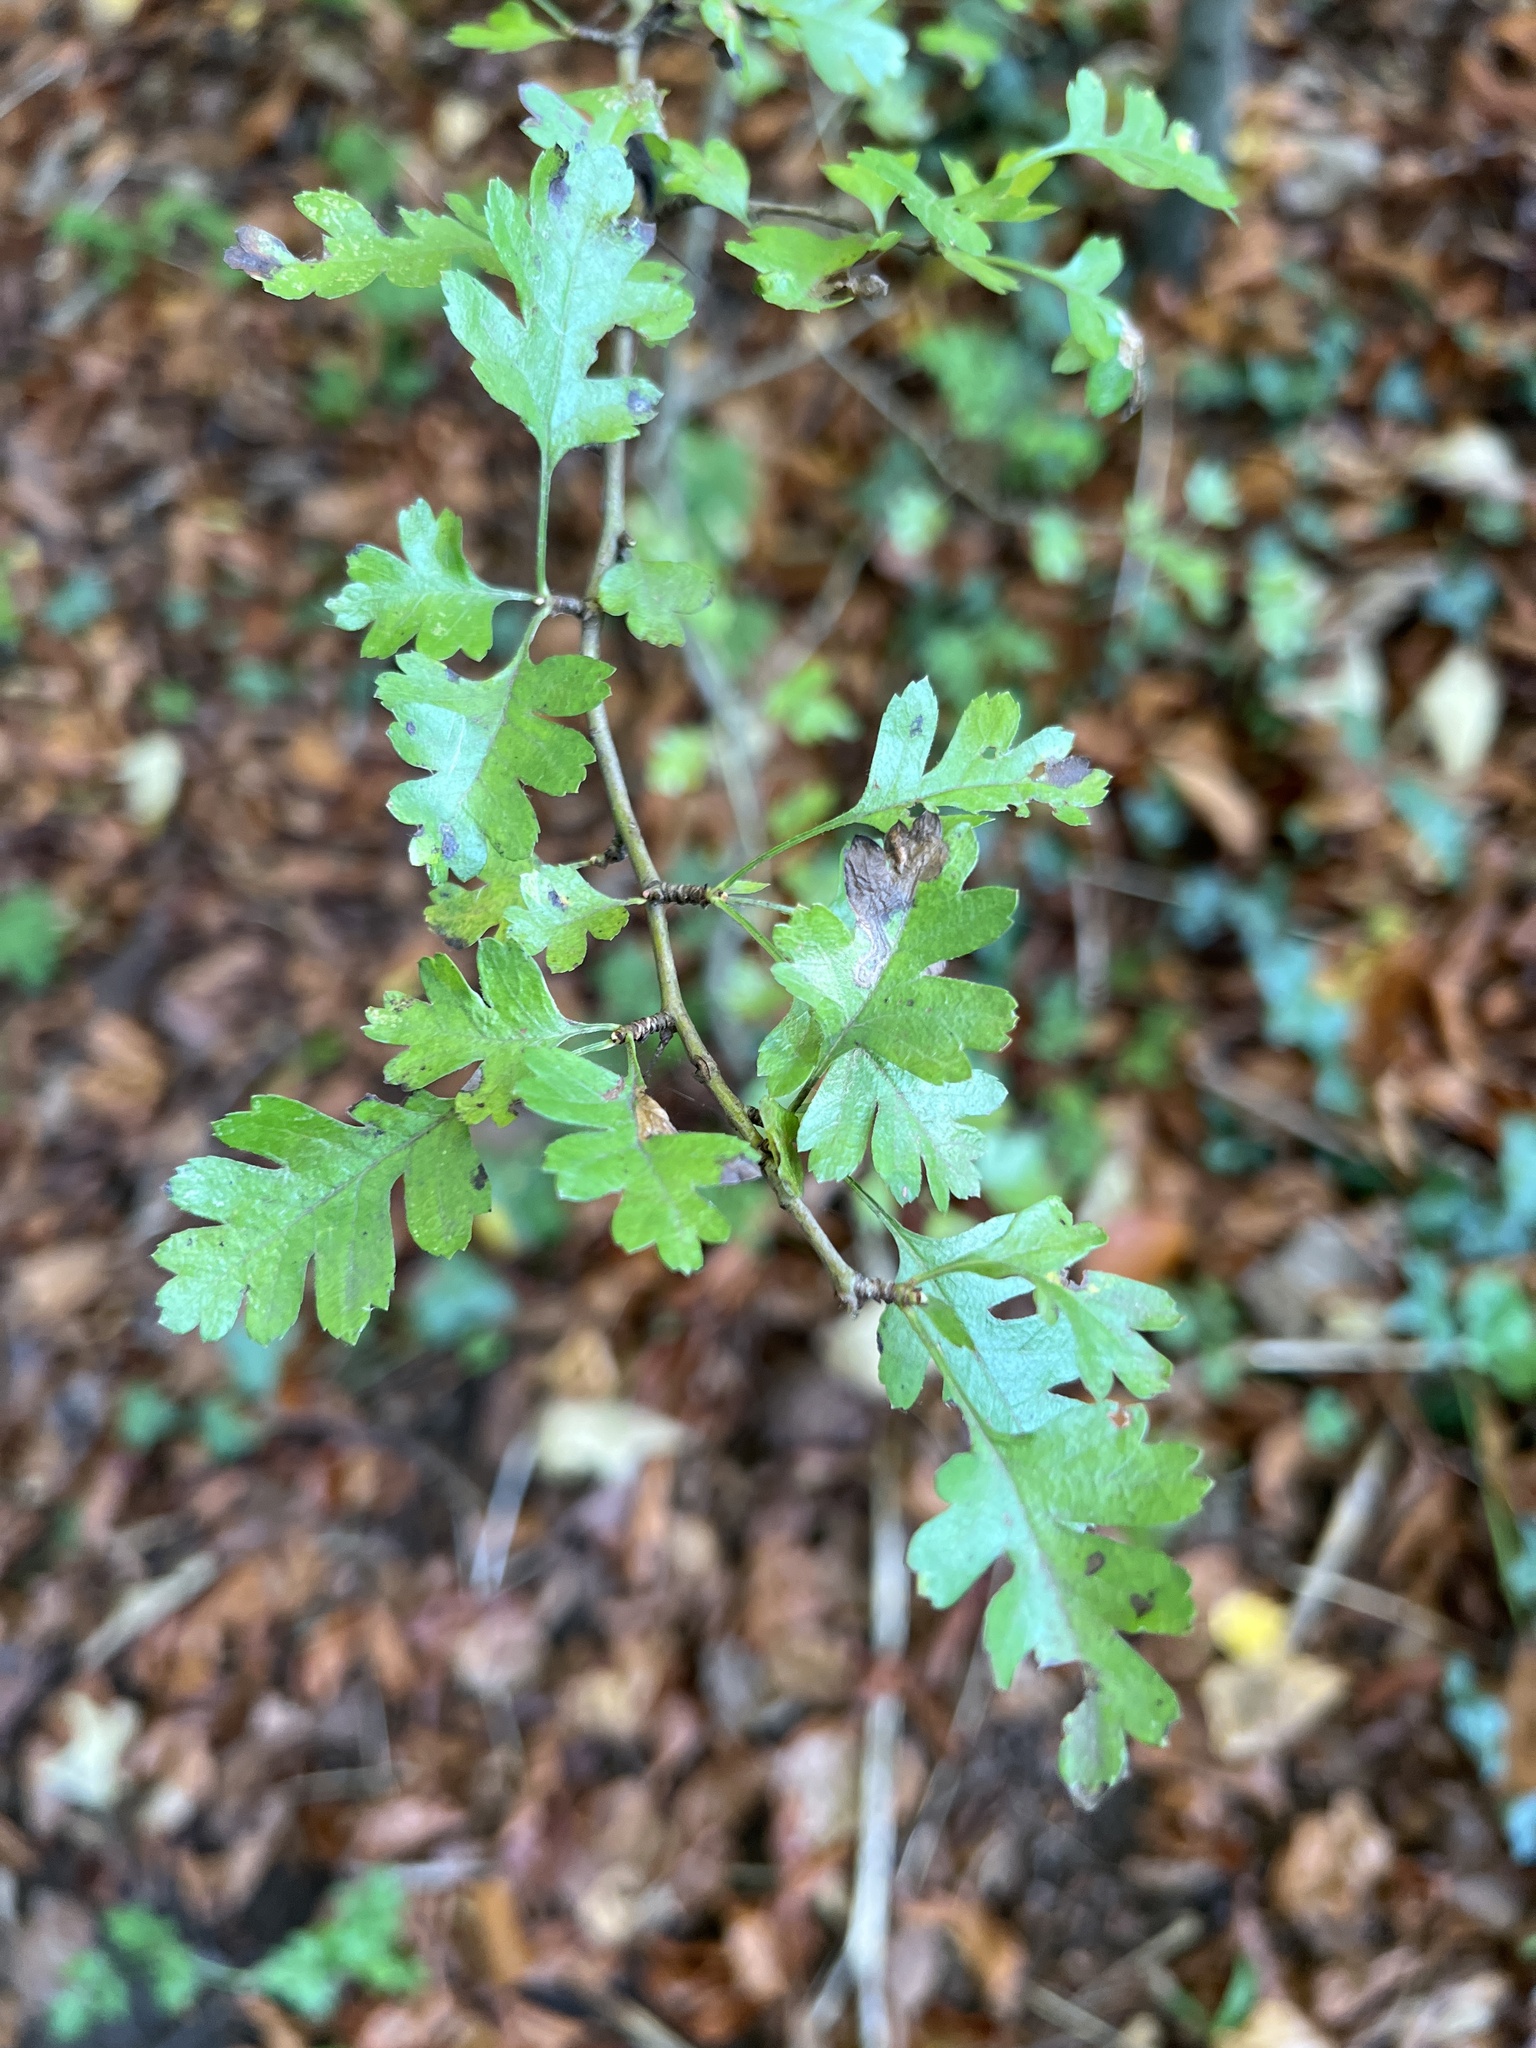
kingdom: Plantae
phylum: Tracheophyta
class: Magnoliopsida
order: Rosales
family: Rosaceae
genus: Crataegus
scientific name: Crataegus monogyna
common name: Hawthorn
